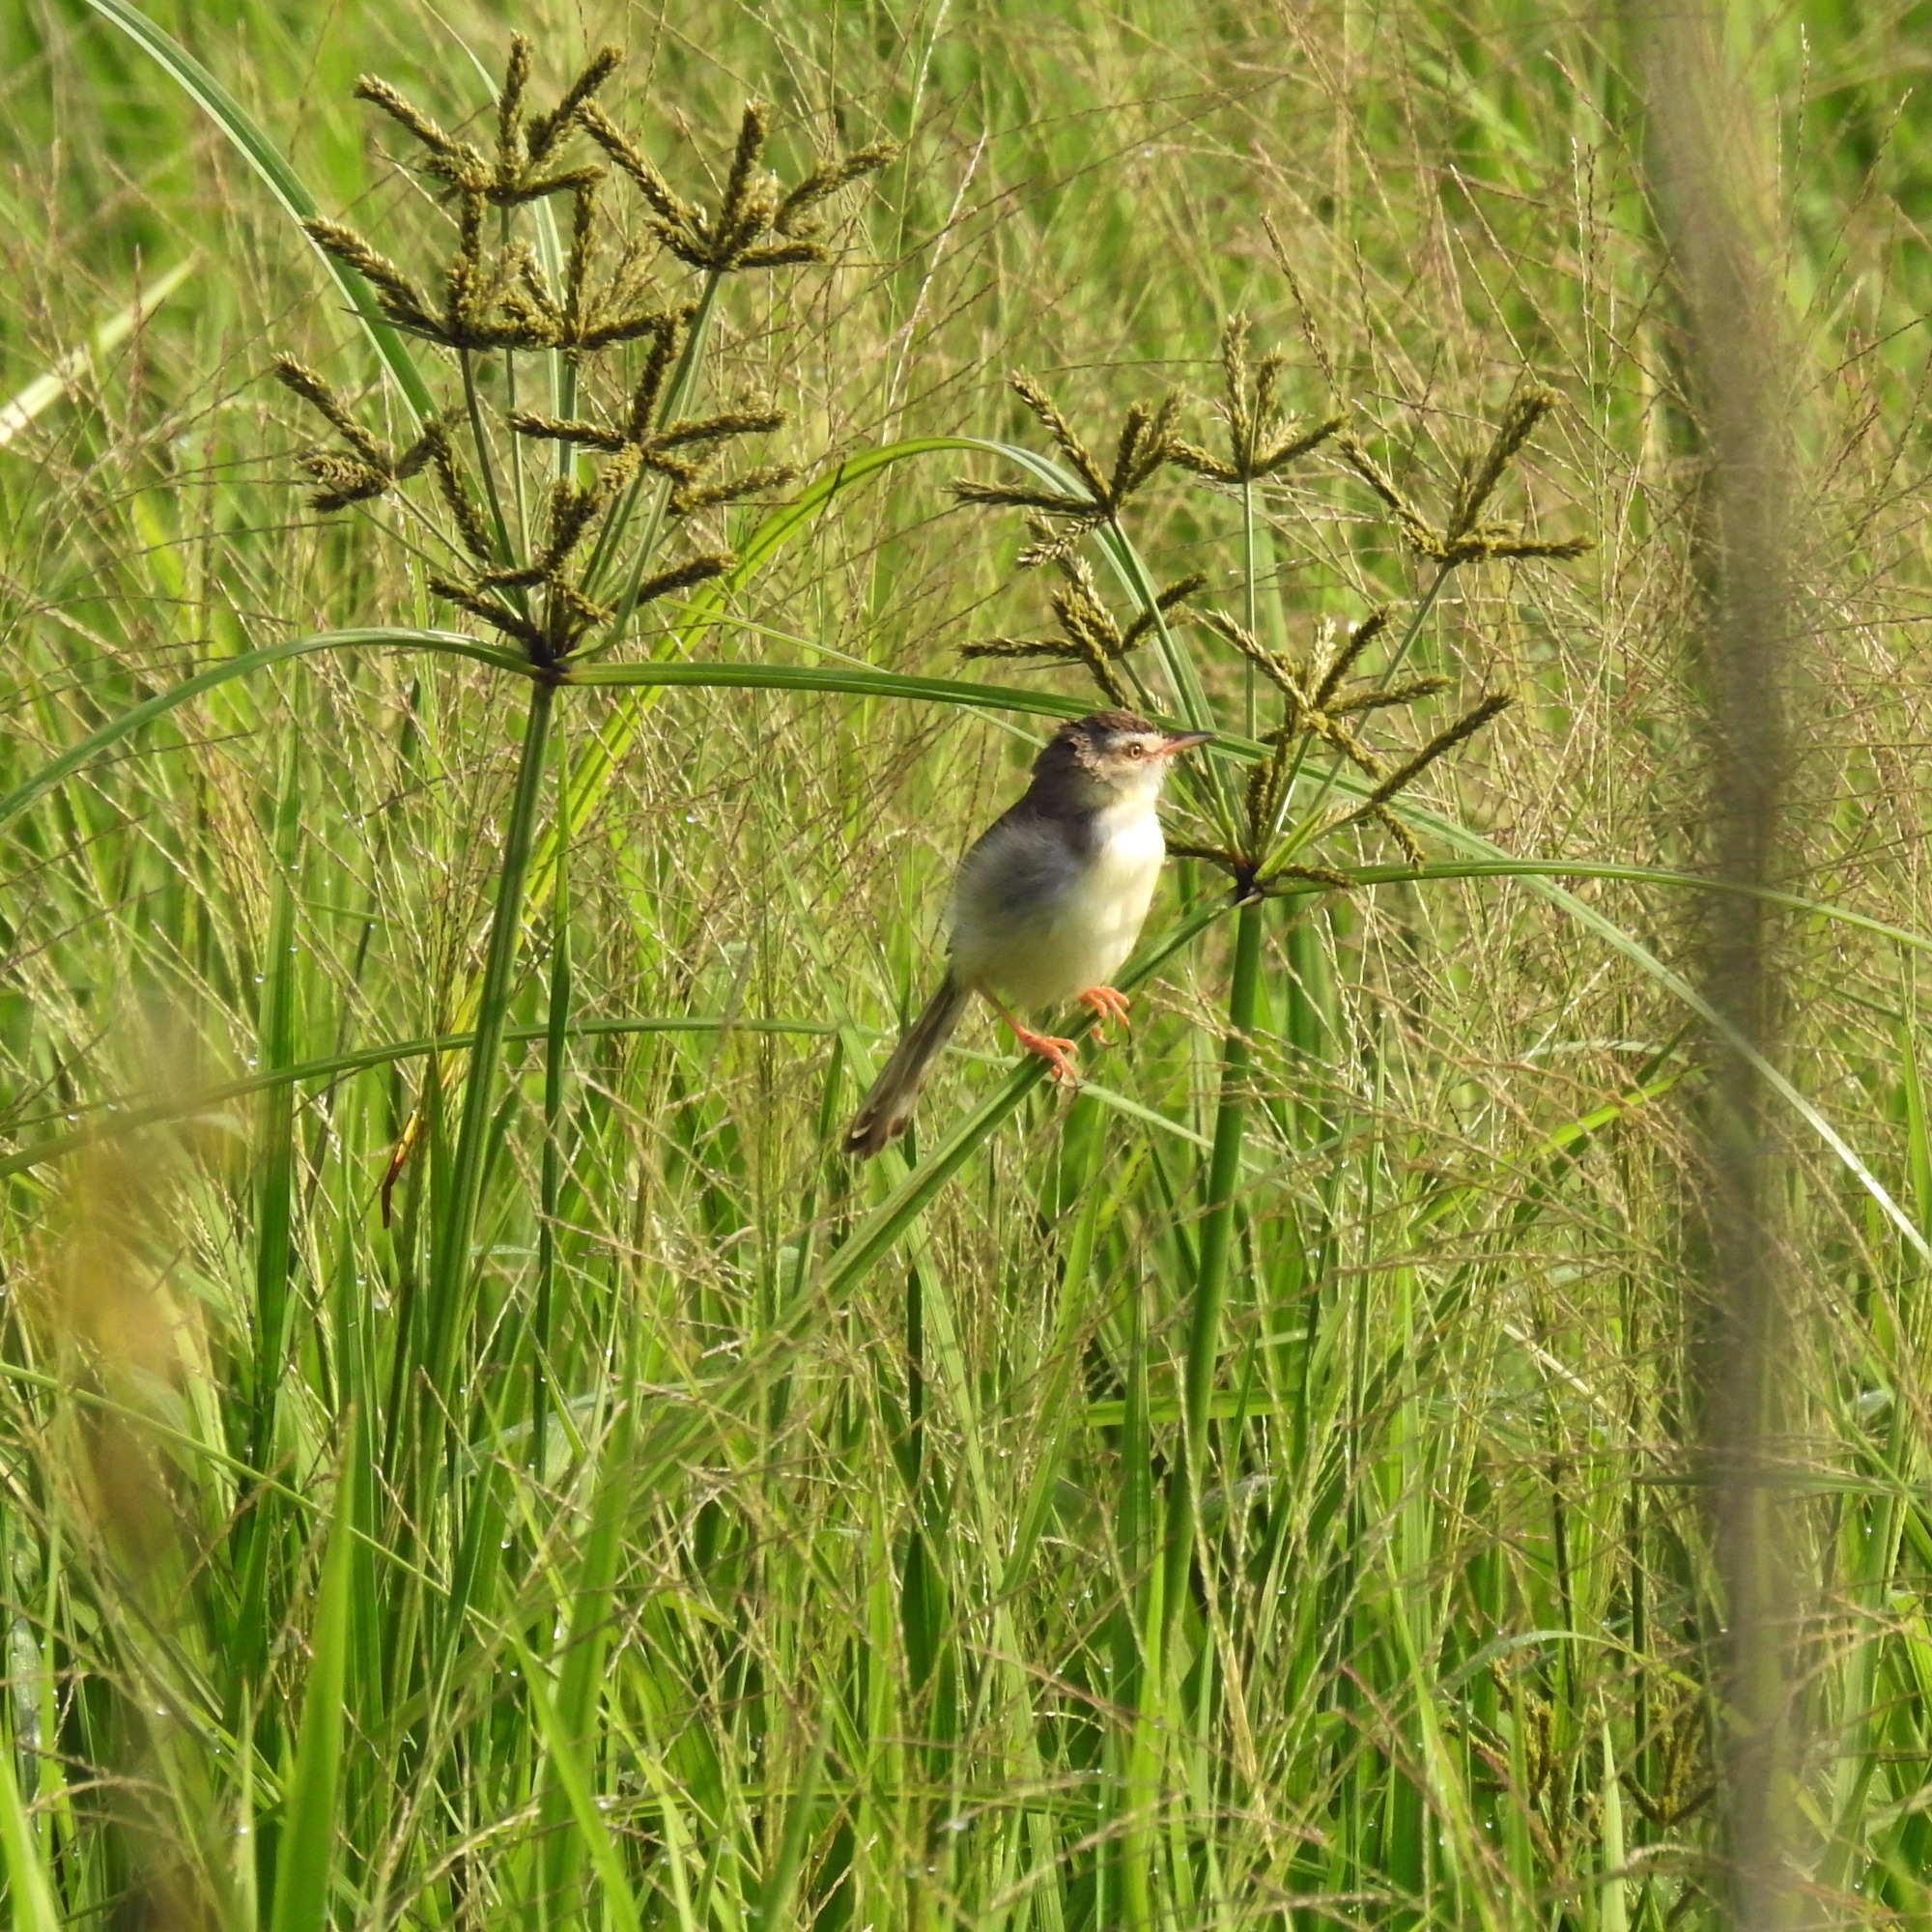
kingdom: Animalia
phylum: Chordata
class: Aves
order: Passeriformes
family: Cisticolidae
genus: Prinia
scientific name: Prinia inornata
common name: Plain prinia
